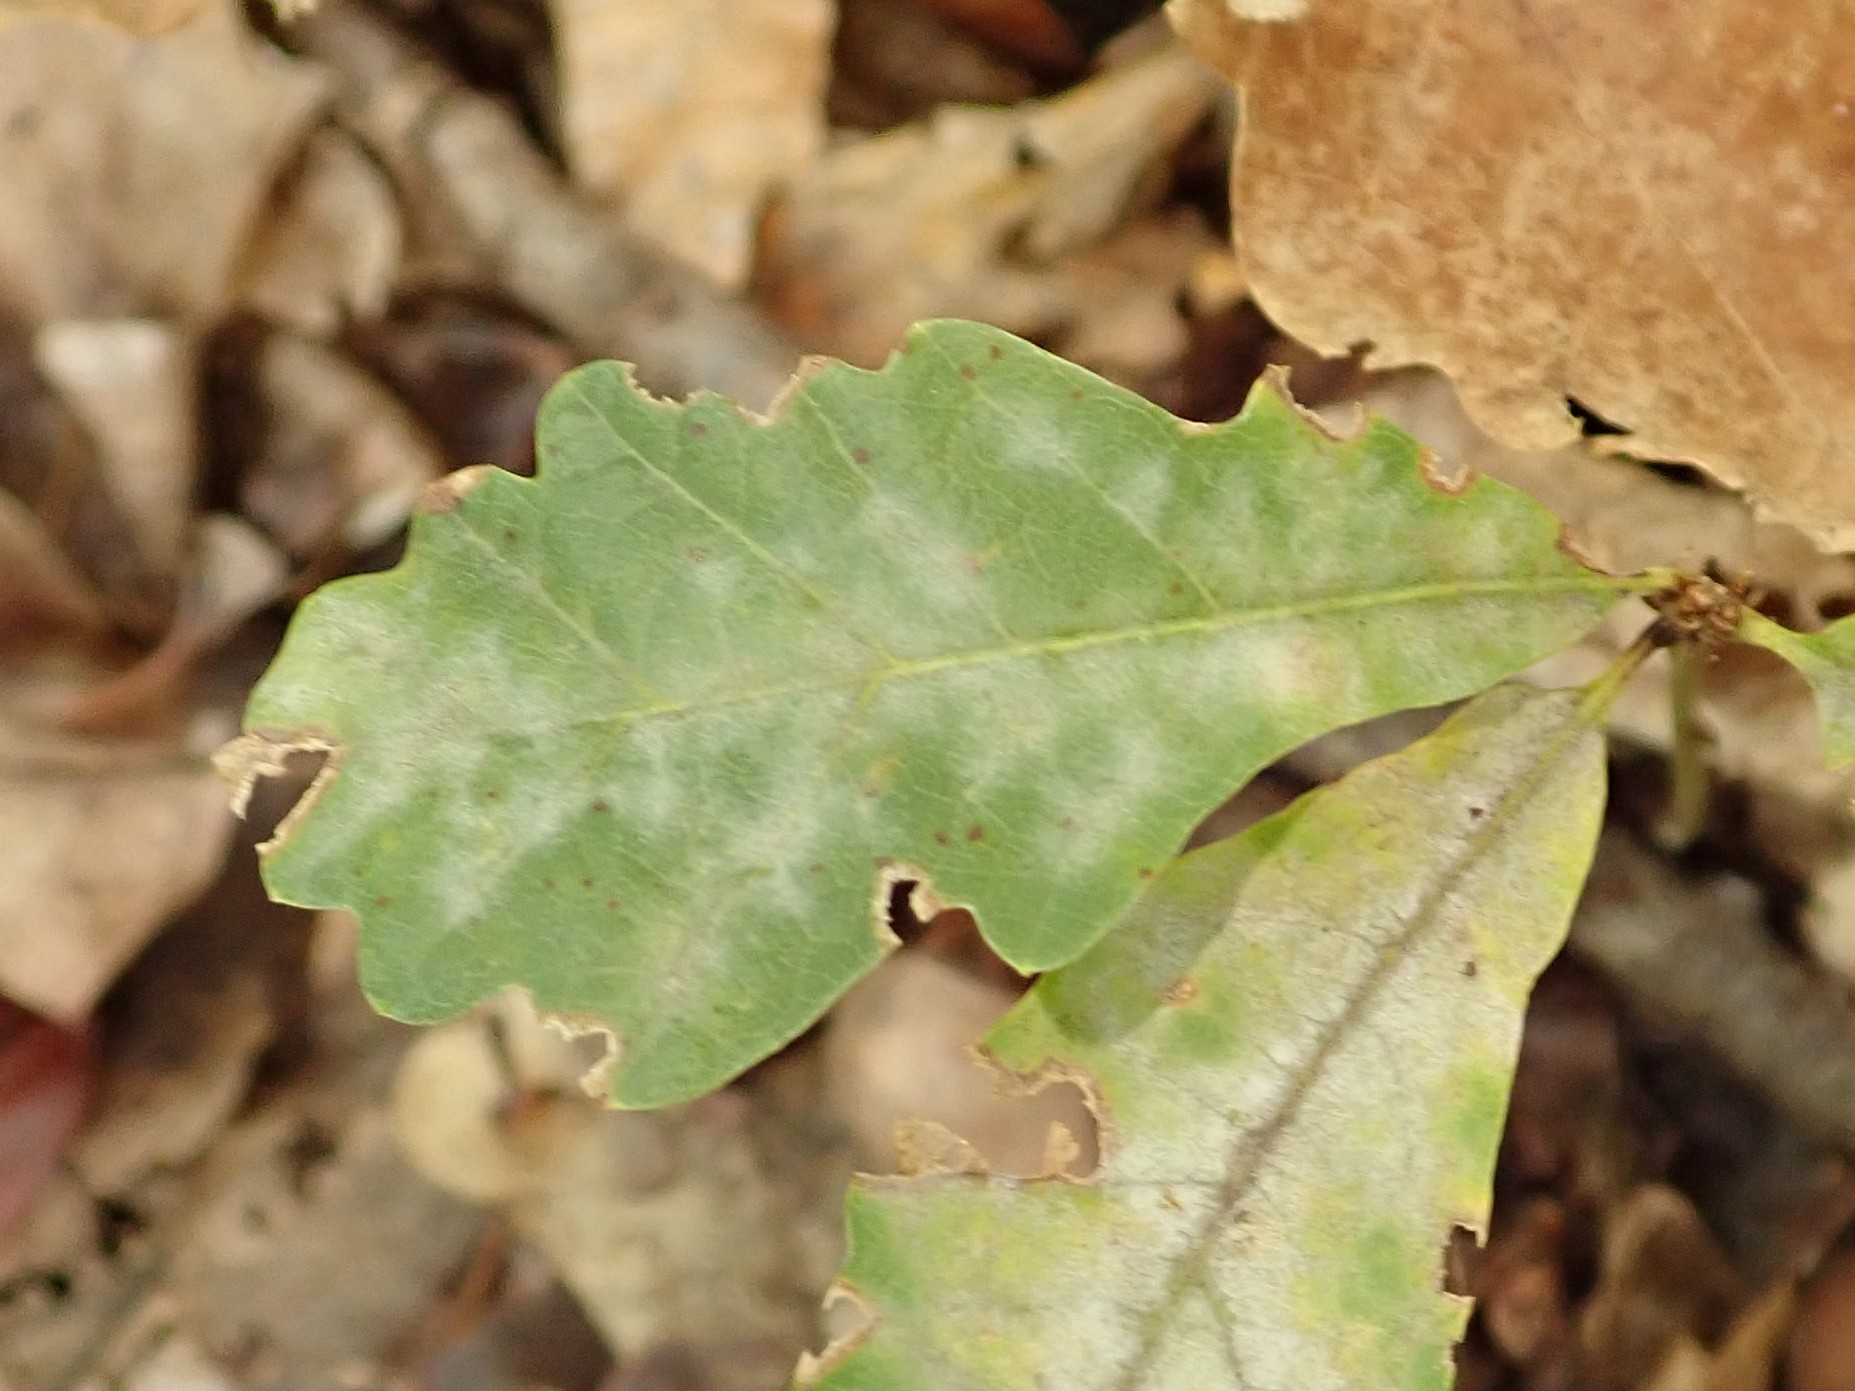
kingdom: Fungi
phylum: Ascomycota
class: Leotiomycetes
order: Helotiales
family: Erysiphaceae
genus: Erysiphe
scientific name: Erysiphe
